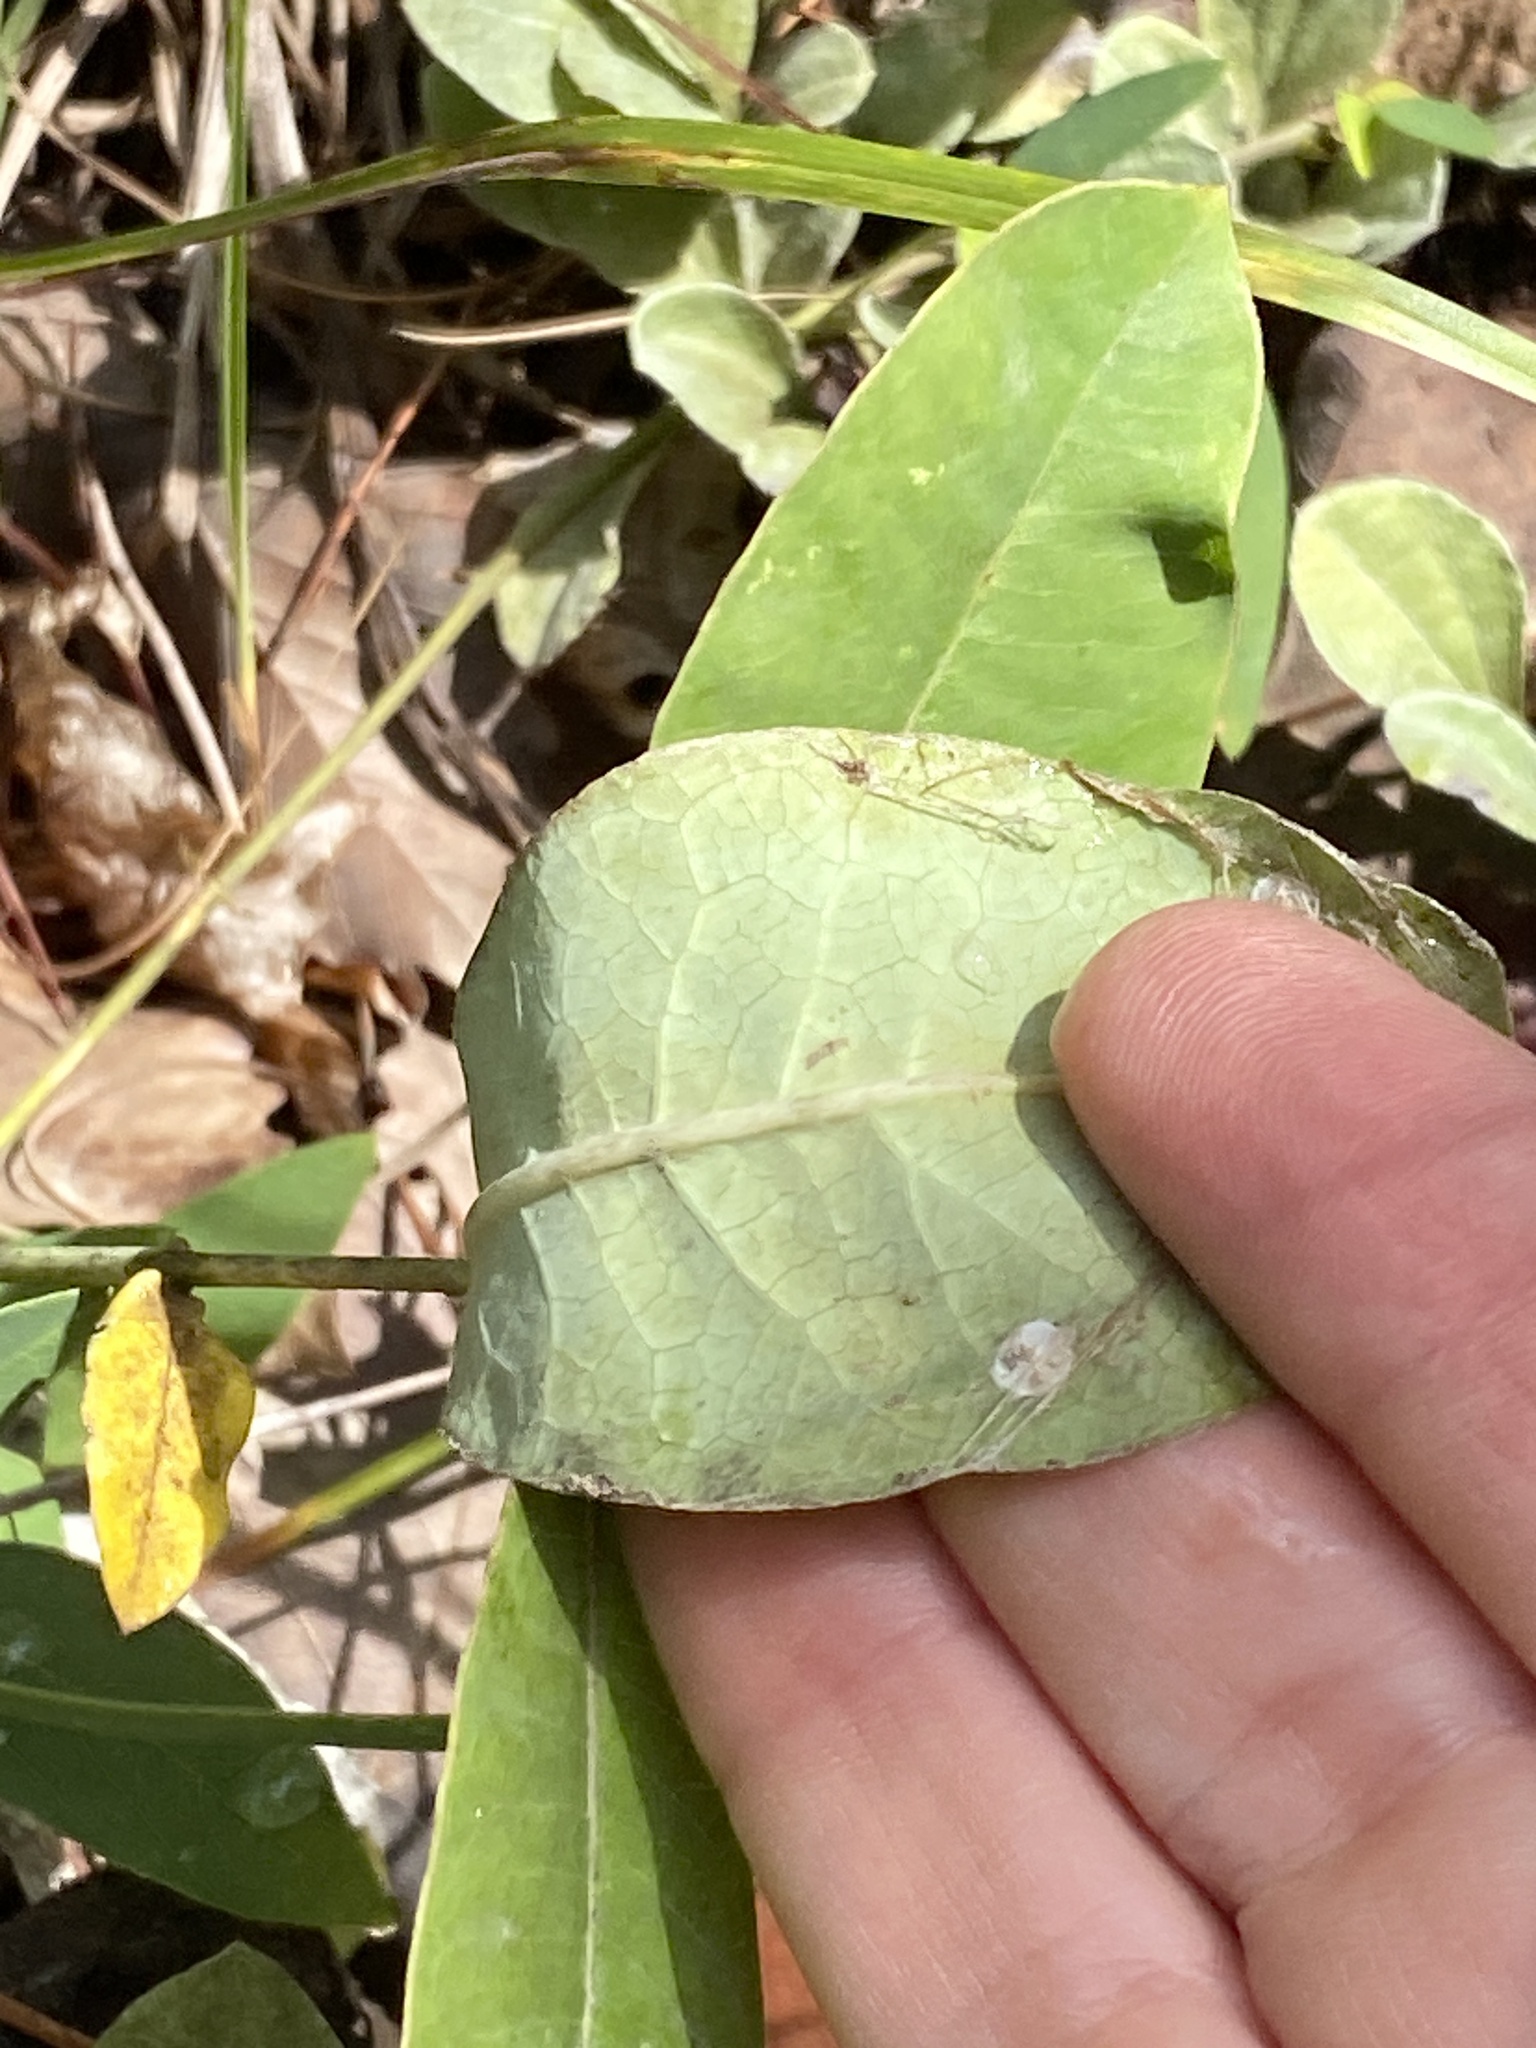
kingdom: Plantae
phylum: Tracheophyta
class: Magnoliopsida
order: Gentianales
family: Apocynaceae
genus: Asclepias
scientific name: Asclepias variegata
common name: Variegated milkweed
